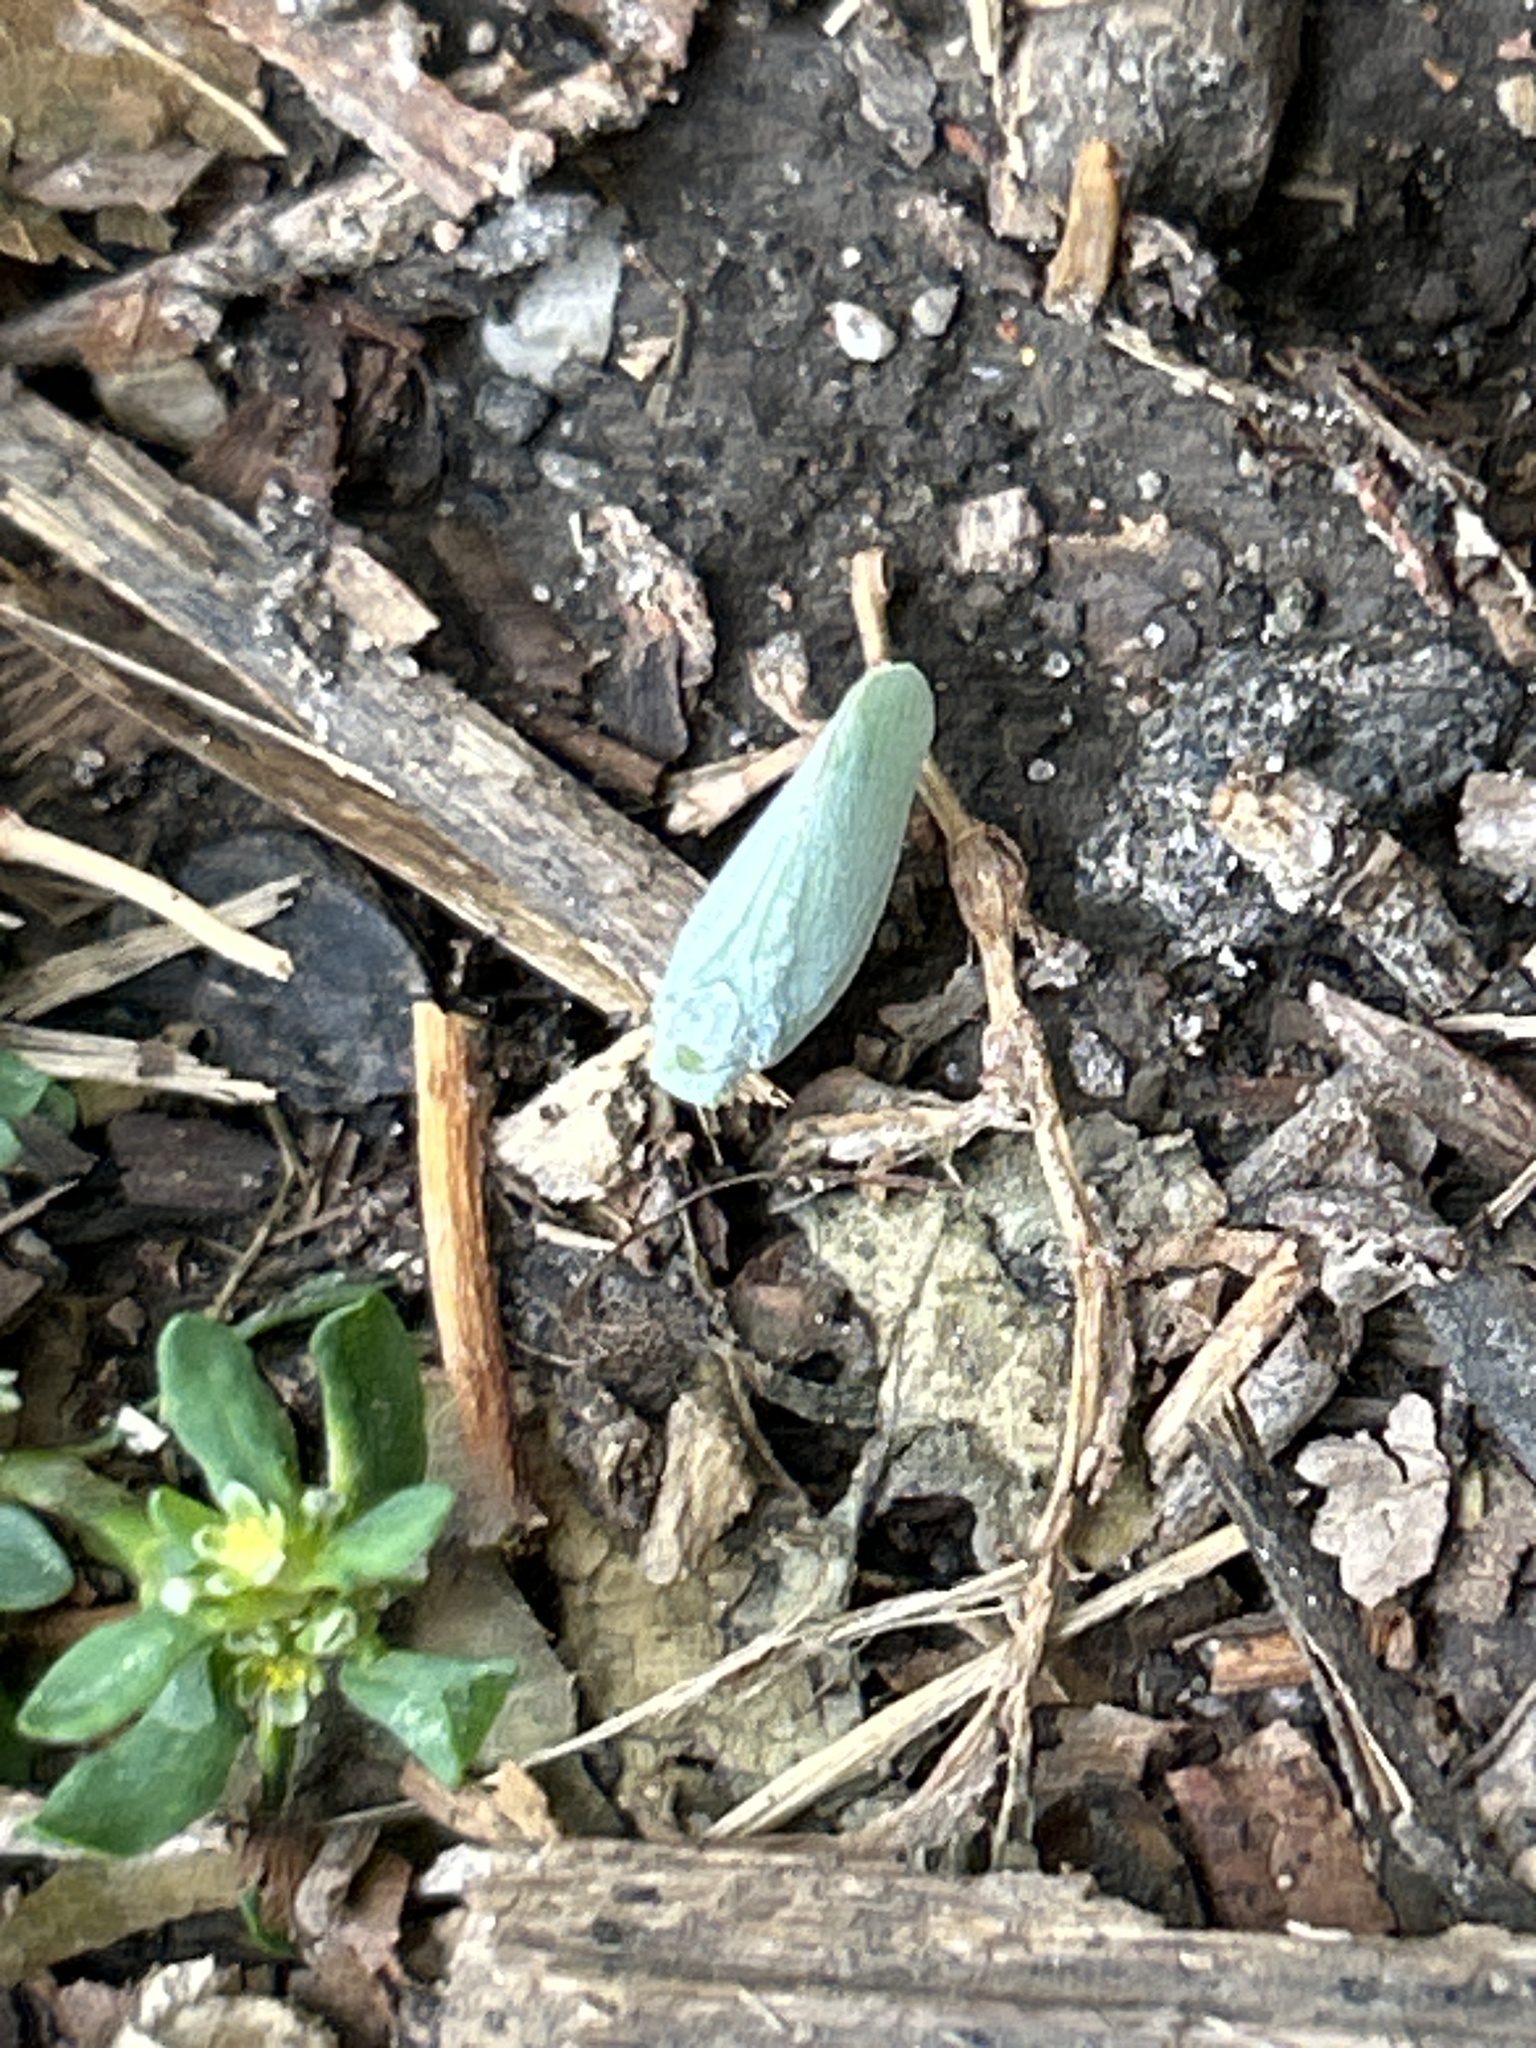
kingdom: Animalia
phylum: Arthropoda
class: Insecta
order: Hemiptera
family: Flatidae
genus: Flatormenis
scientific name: Flatormenis proxima
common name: Northern flatid planthopper
